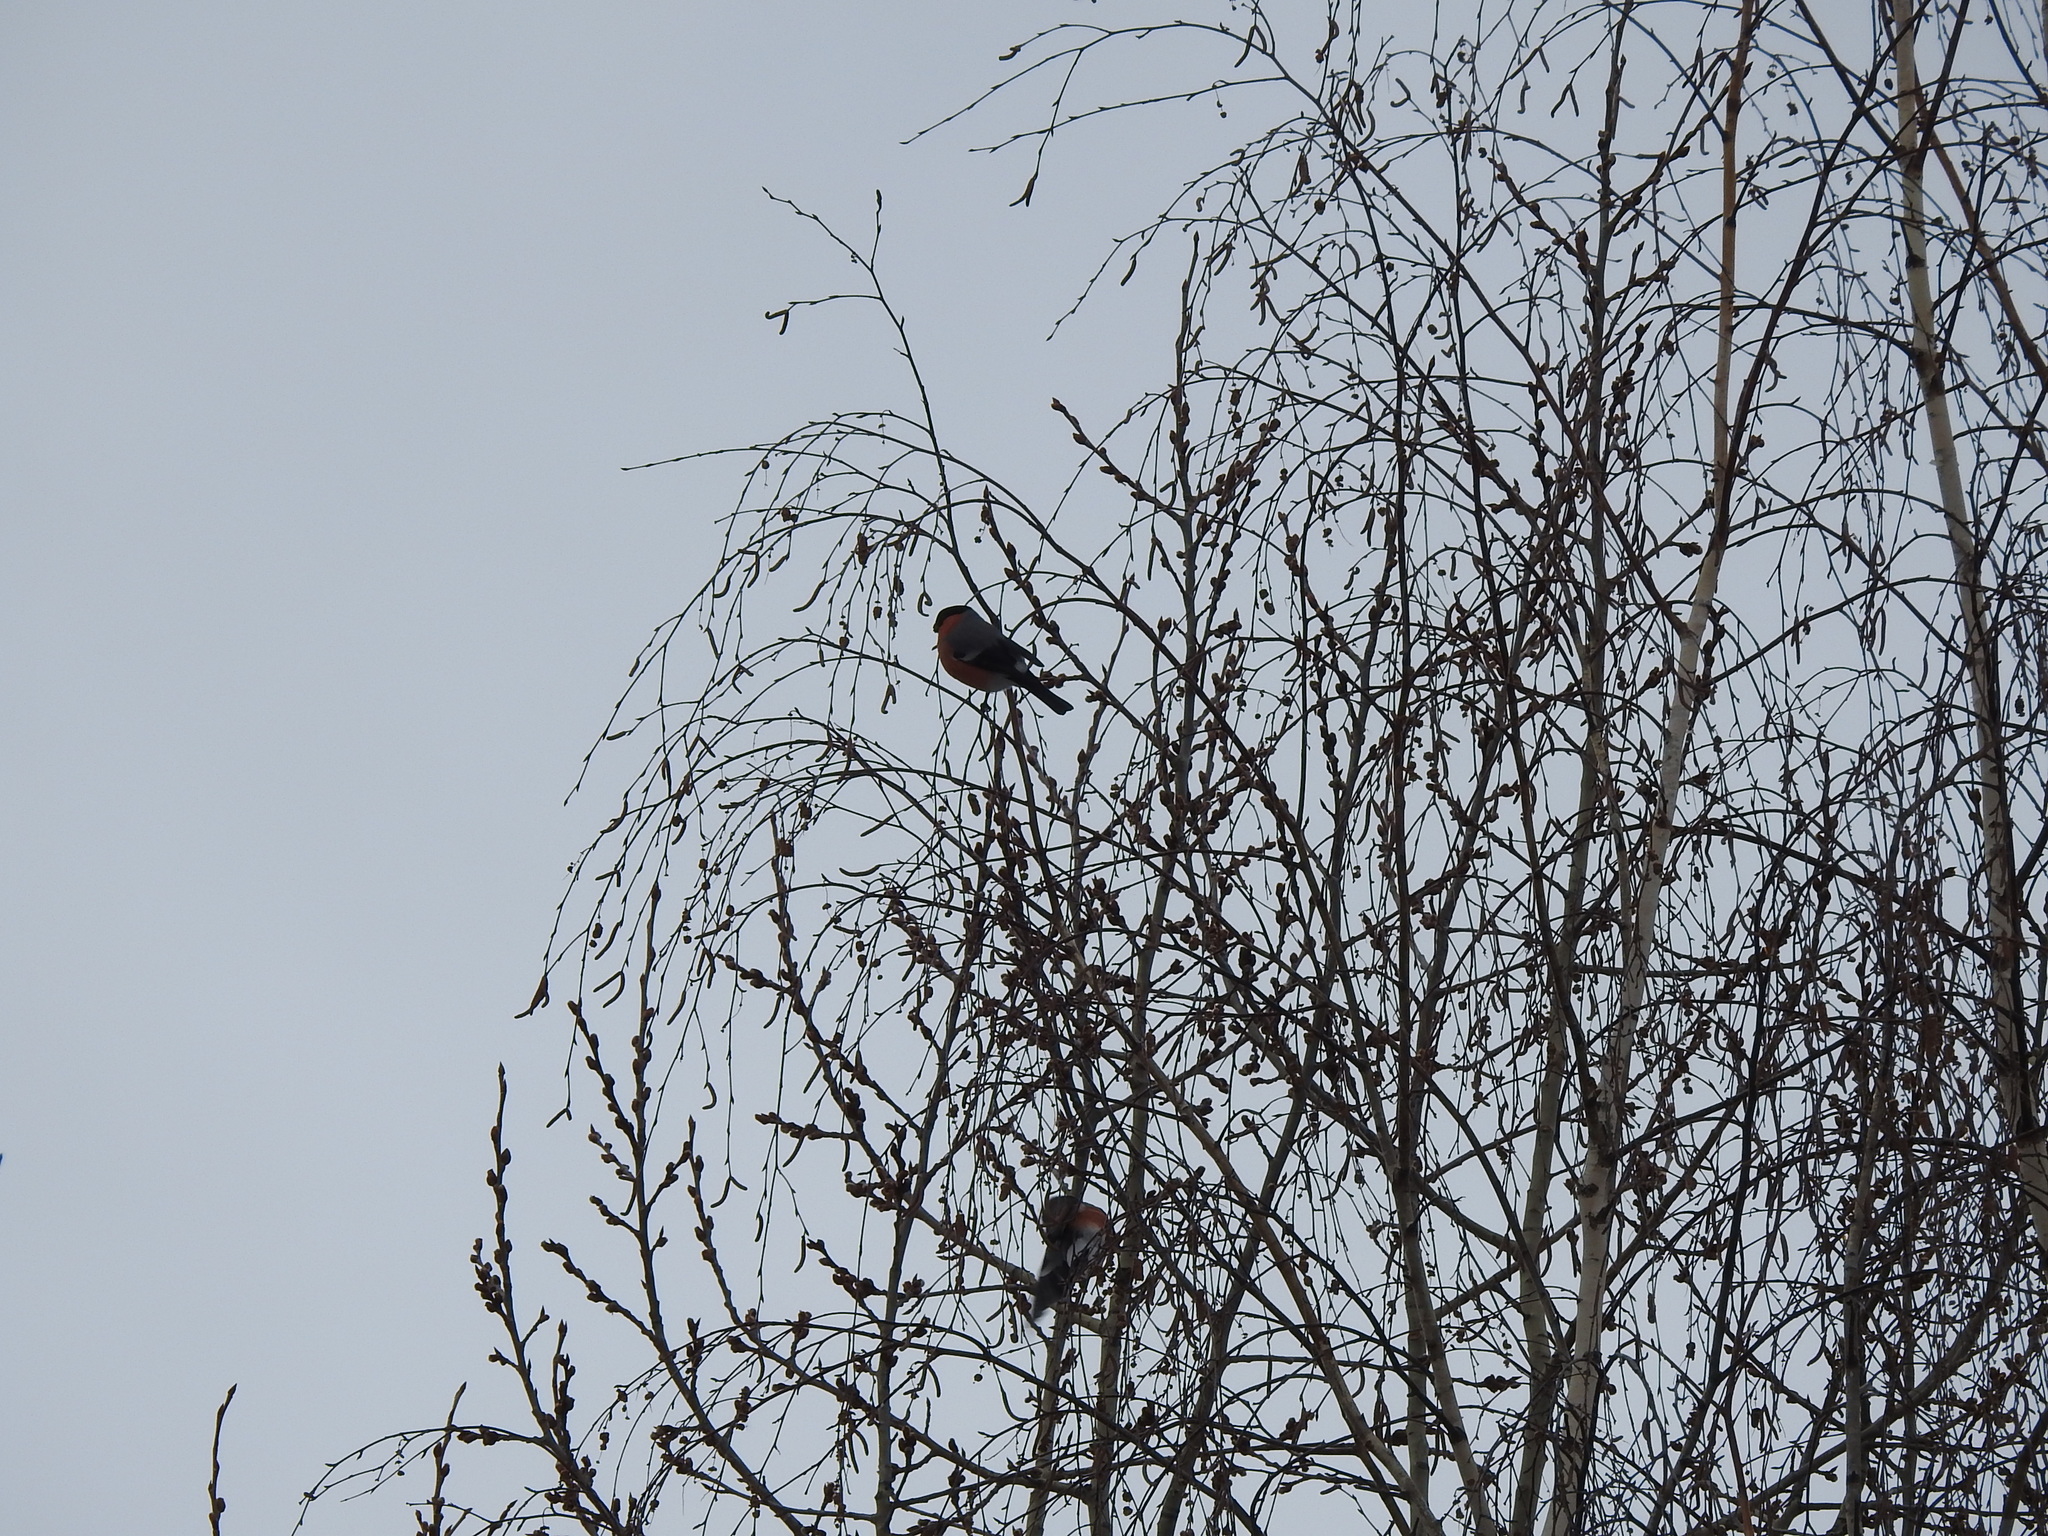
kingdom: Animalia
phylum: Chordata
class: Aves
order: Passeriformes
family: Fringillidae
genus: Pyrrhula
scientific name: Pyrrhula pyrrhula
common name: Eurasian bullfinch
